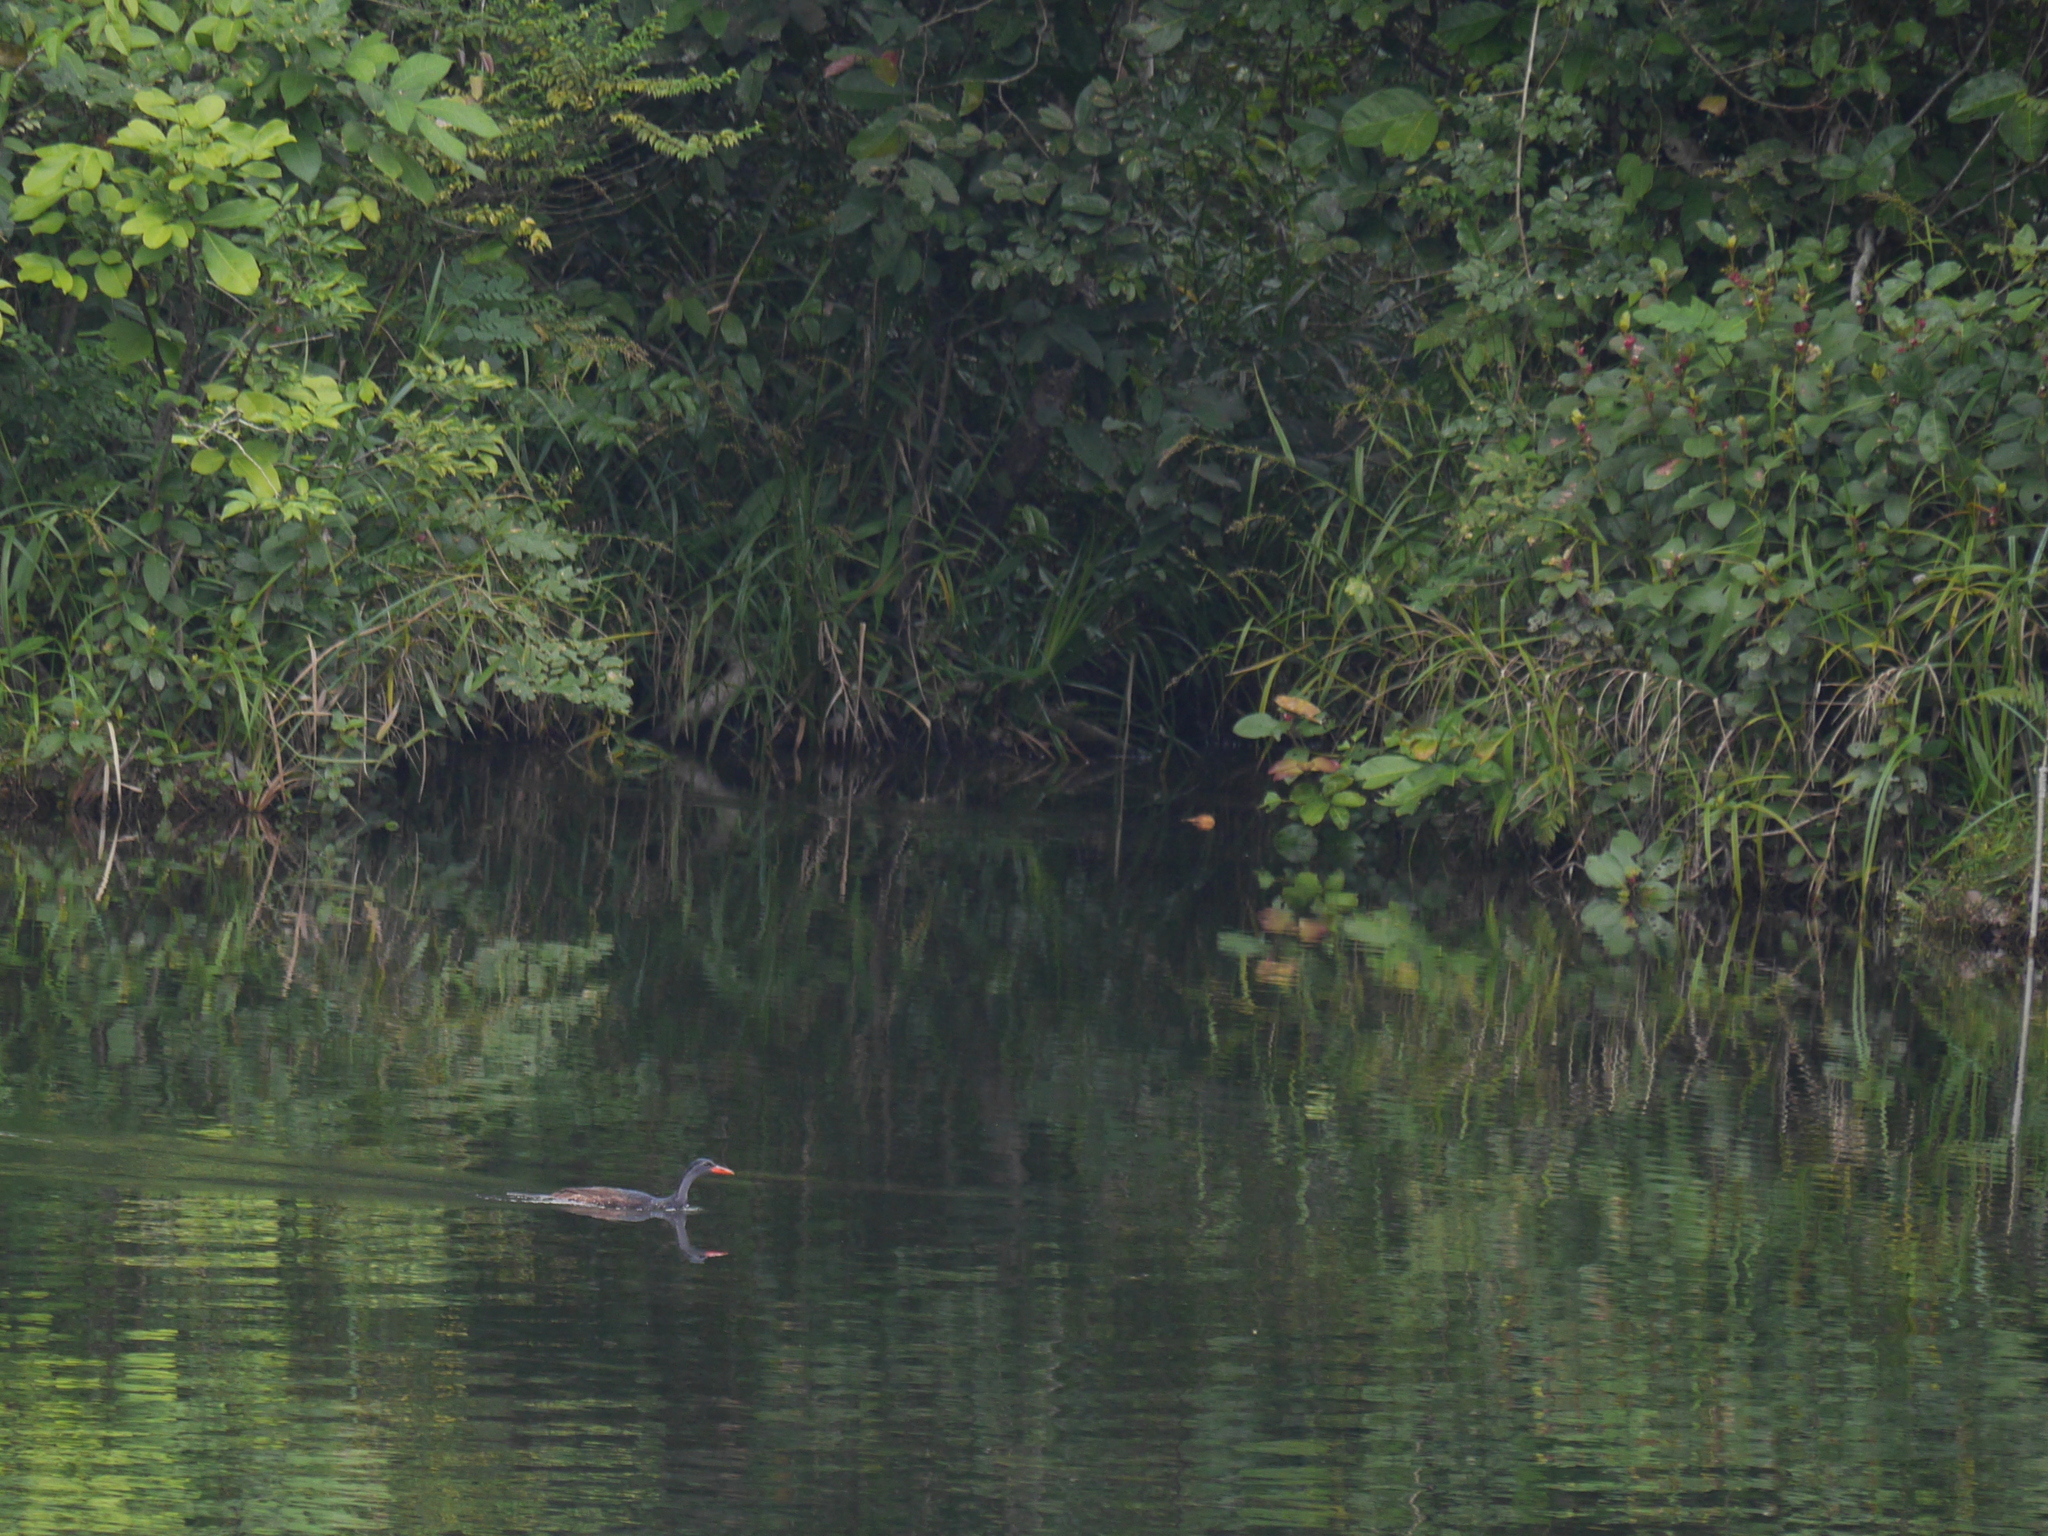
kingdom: Animalia
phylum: Chordata
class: Aves
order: Gruiformes
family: Heliornithidae
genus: Podica
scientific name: Podica senegalensis
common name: African finfoot
